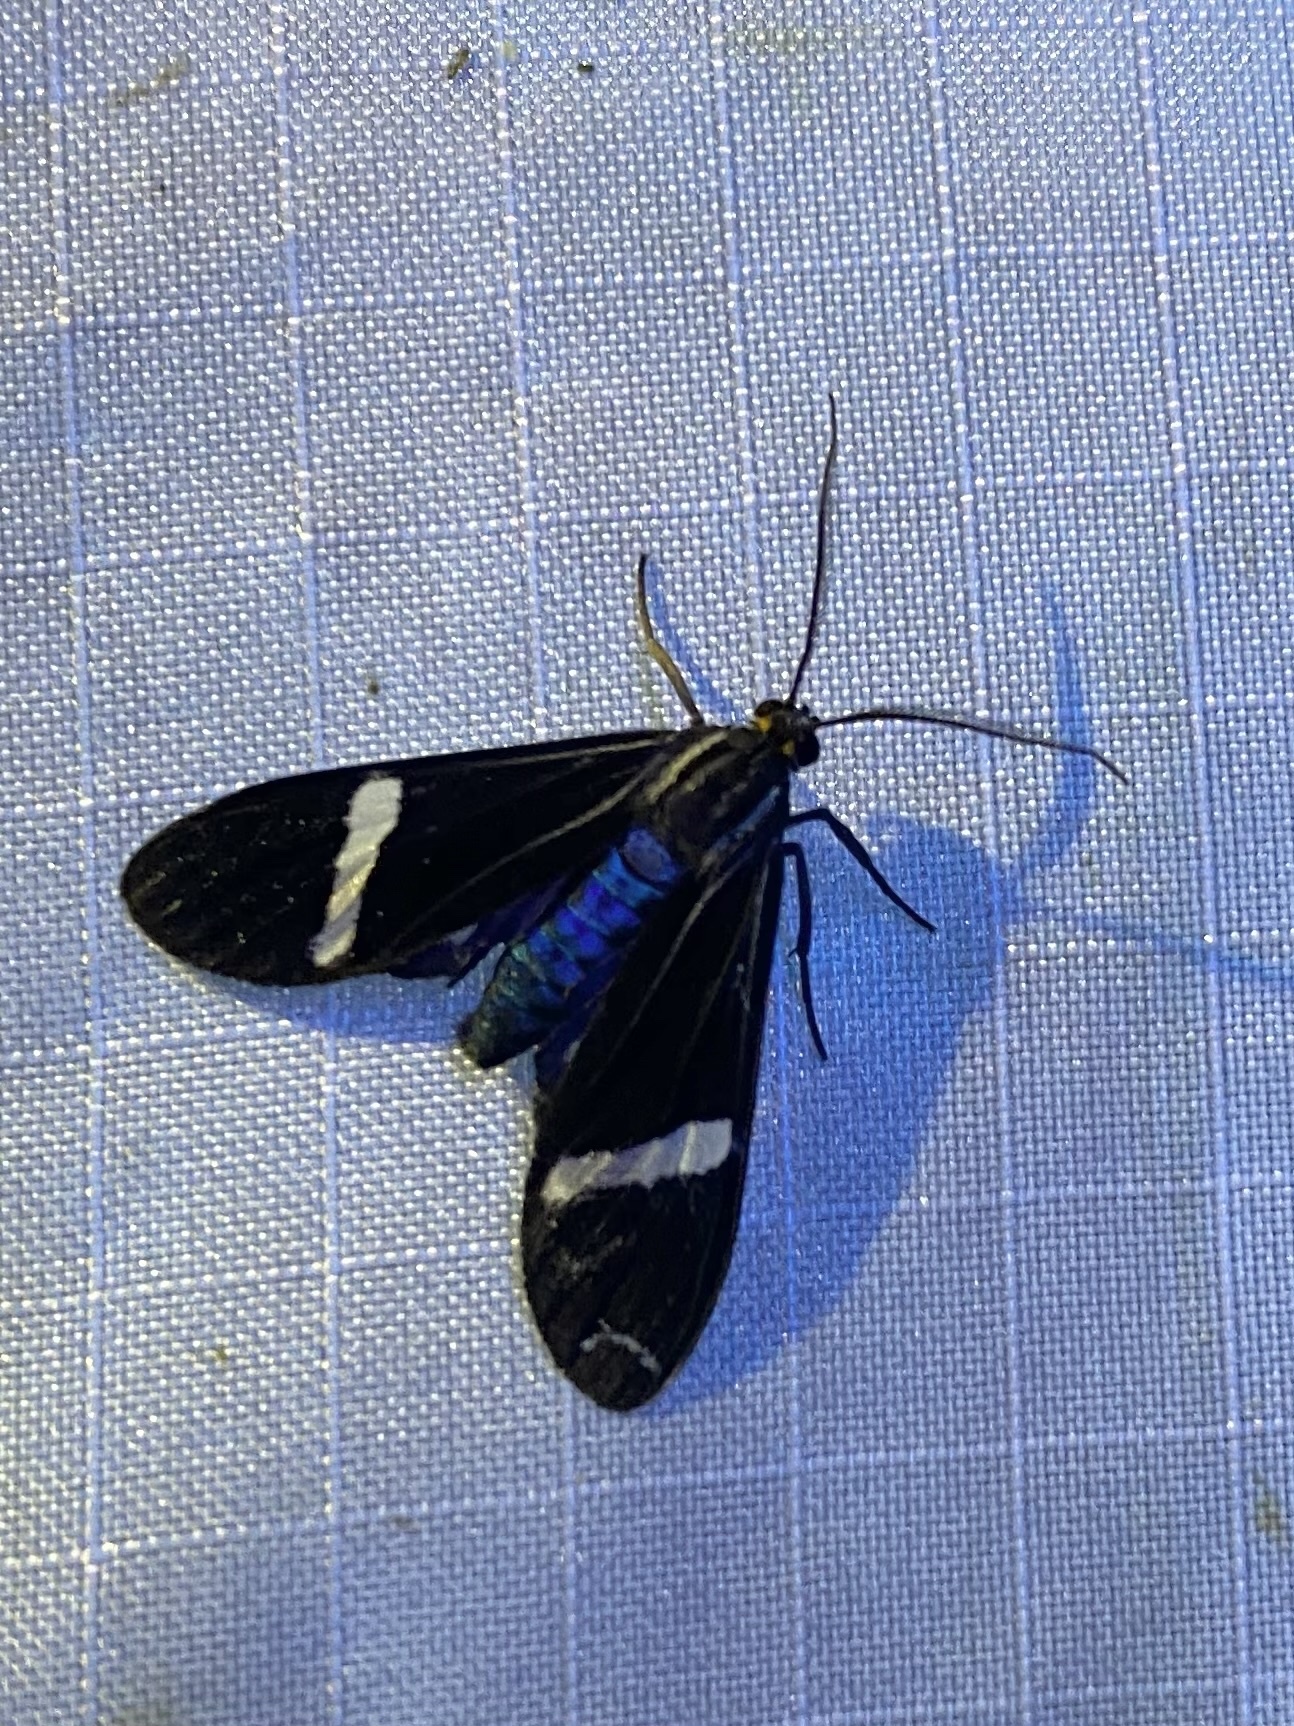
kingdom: Animalia
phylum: Arthropoda
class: Insecta
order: Lepidoptera
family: Erebidae
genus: Mydromera
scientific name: Mydromera isthmia
